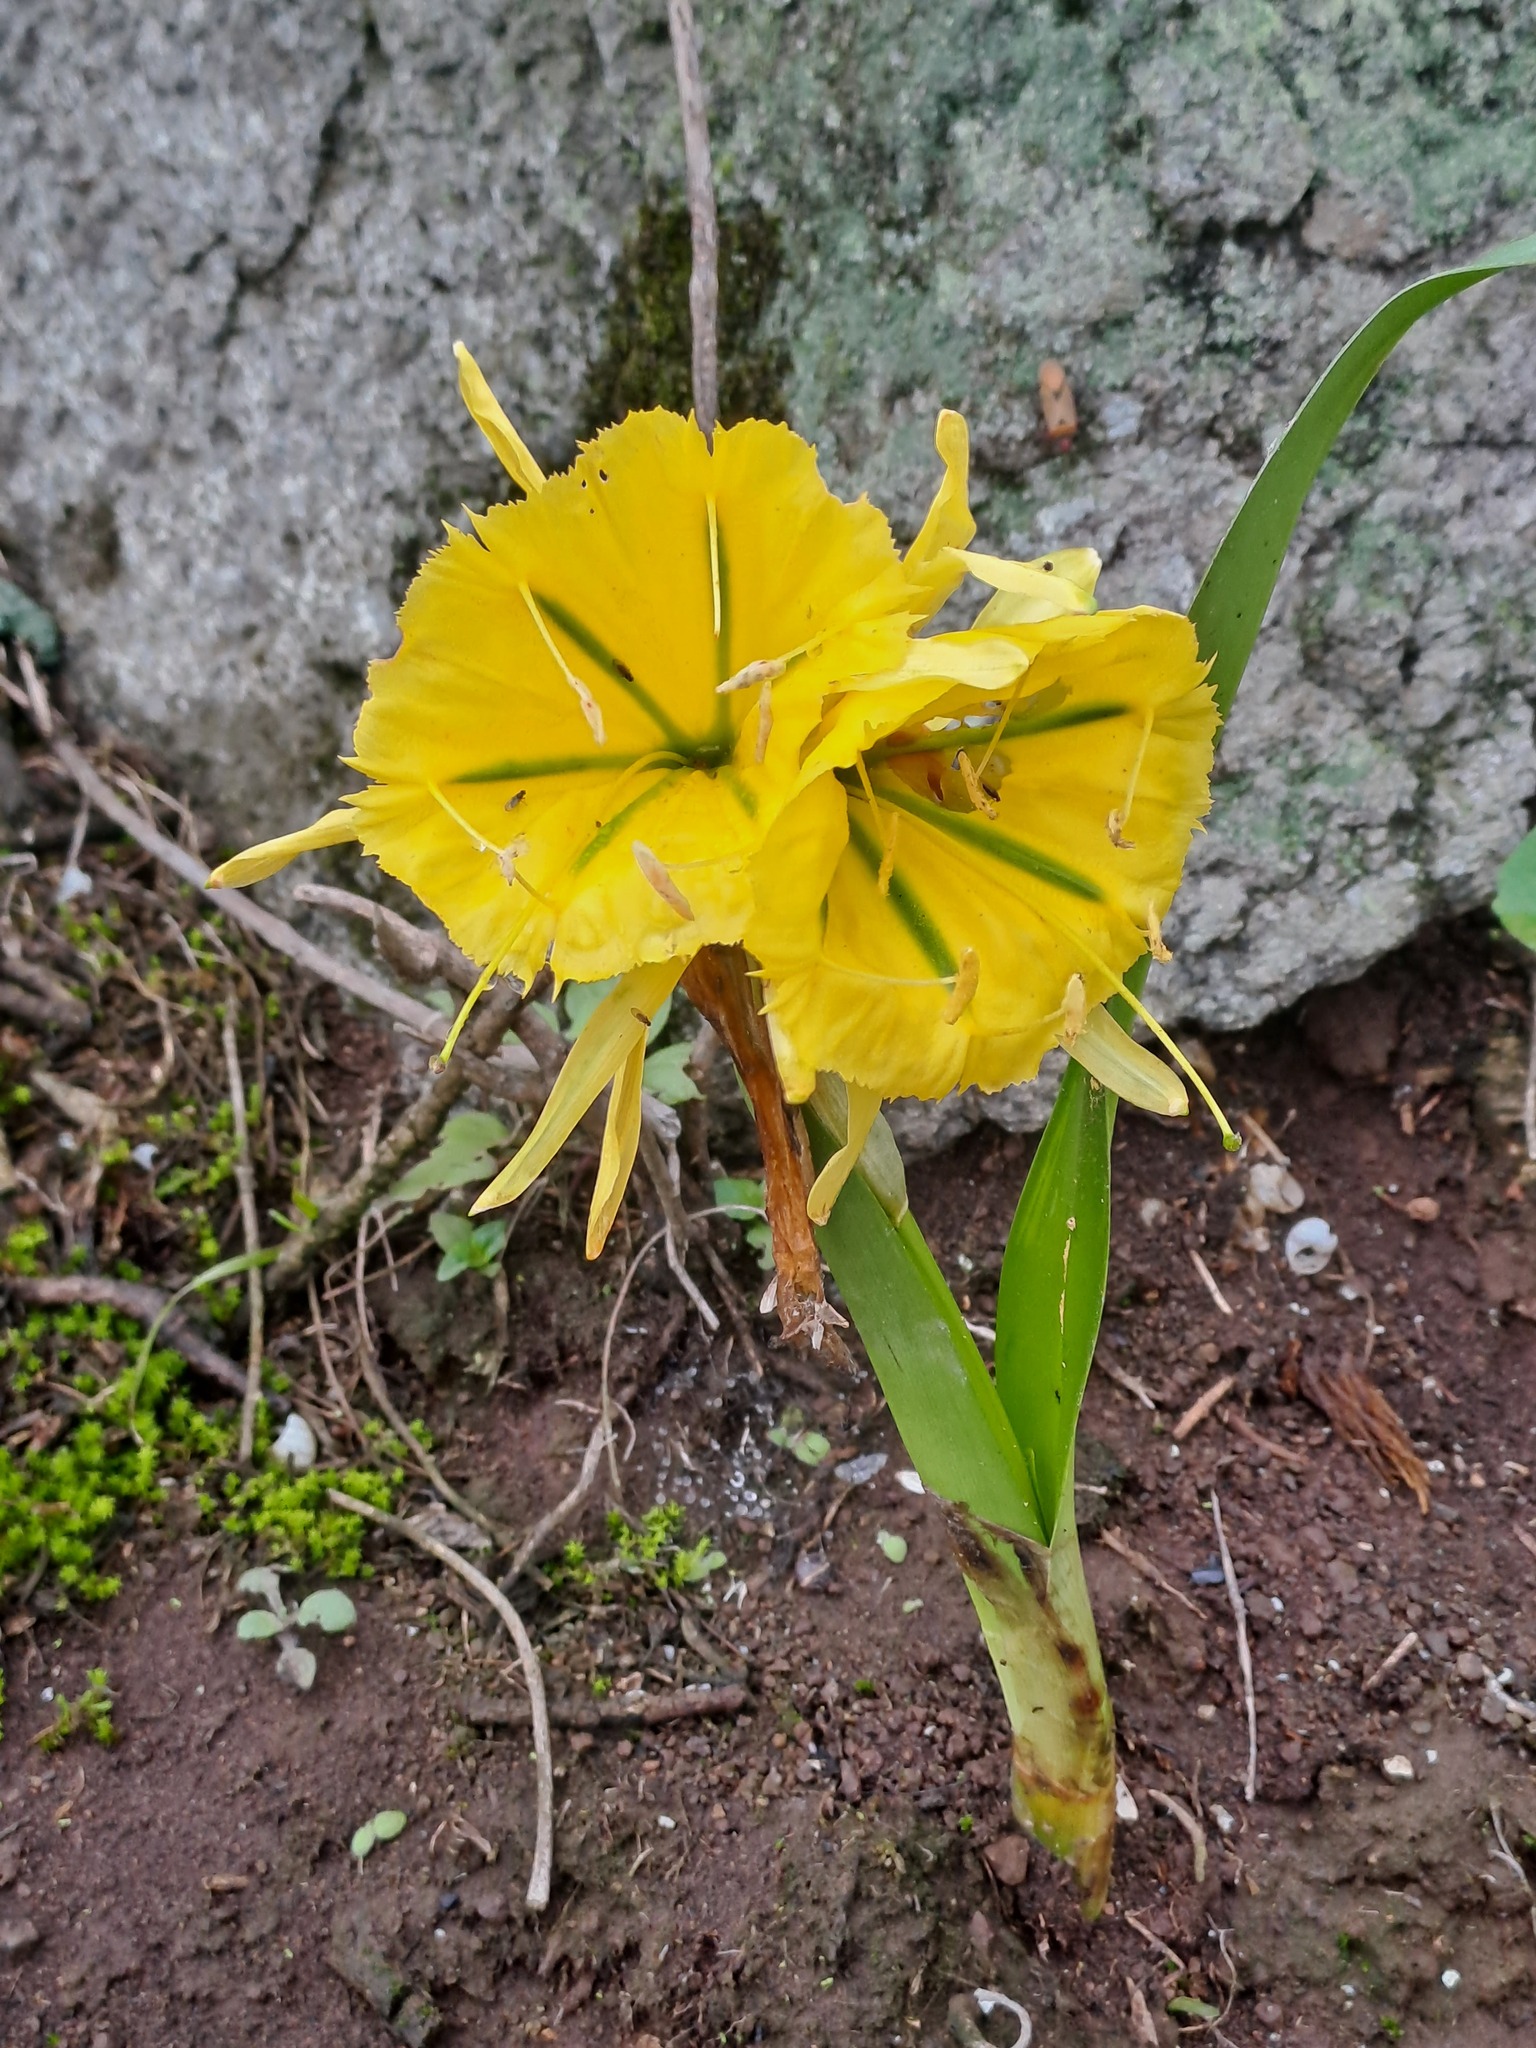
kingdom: Plantae
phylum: Tracheophyta
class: Liliopsida
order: Asparagales
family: Amaryllidaceae
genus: Ismene
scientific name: Ismene amancaes
